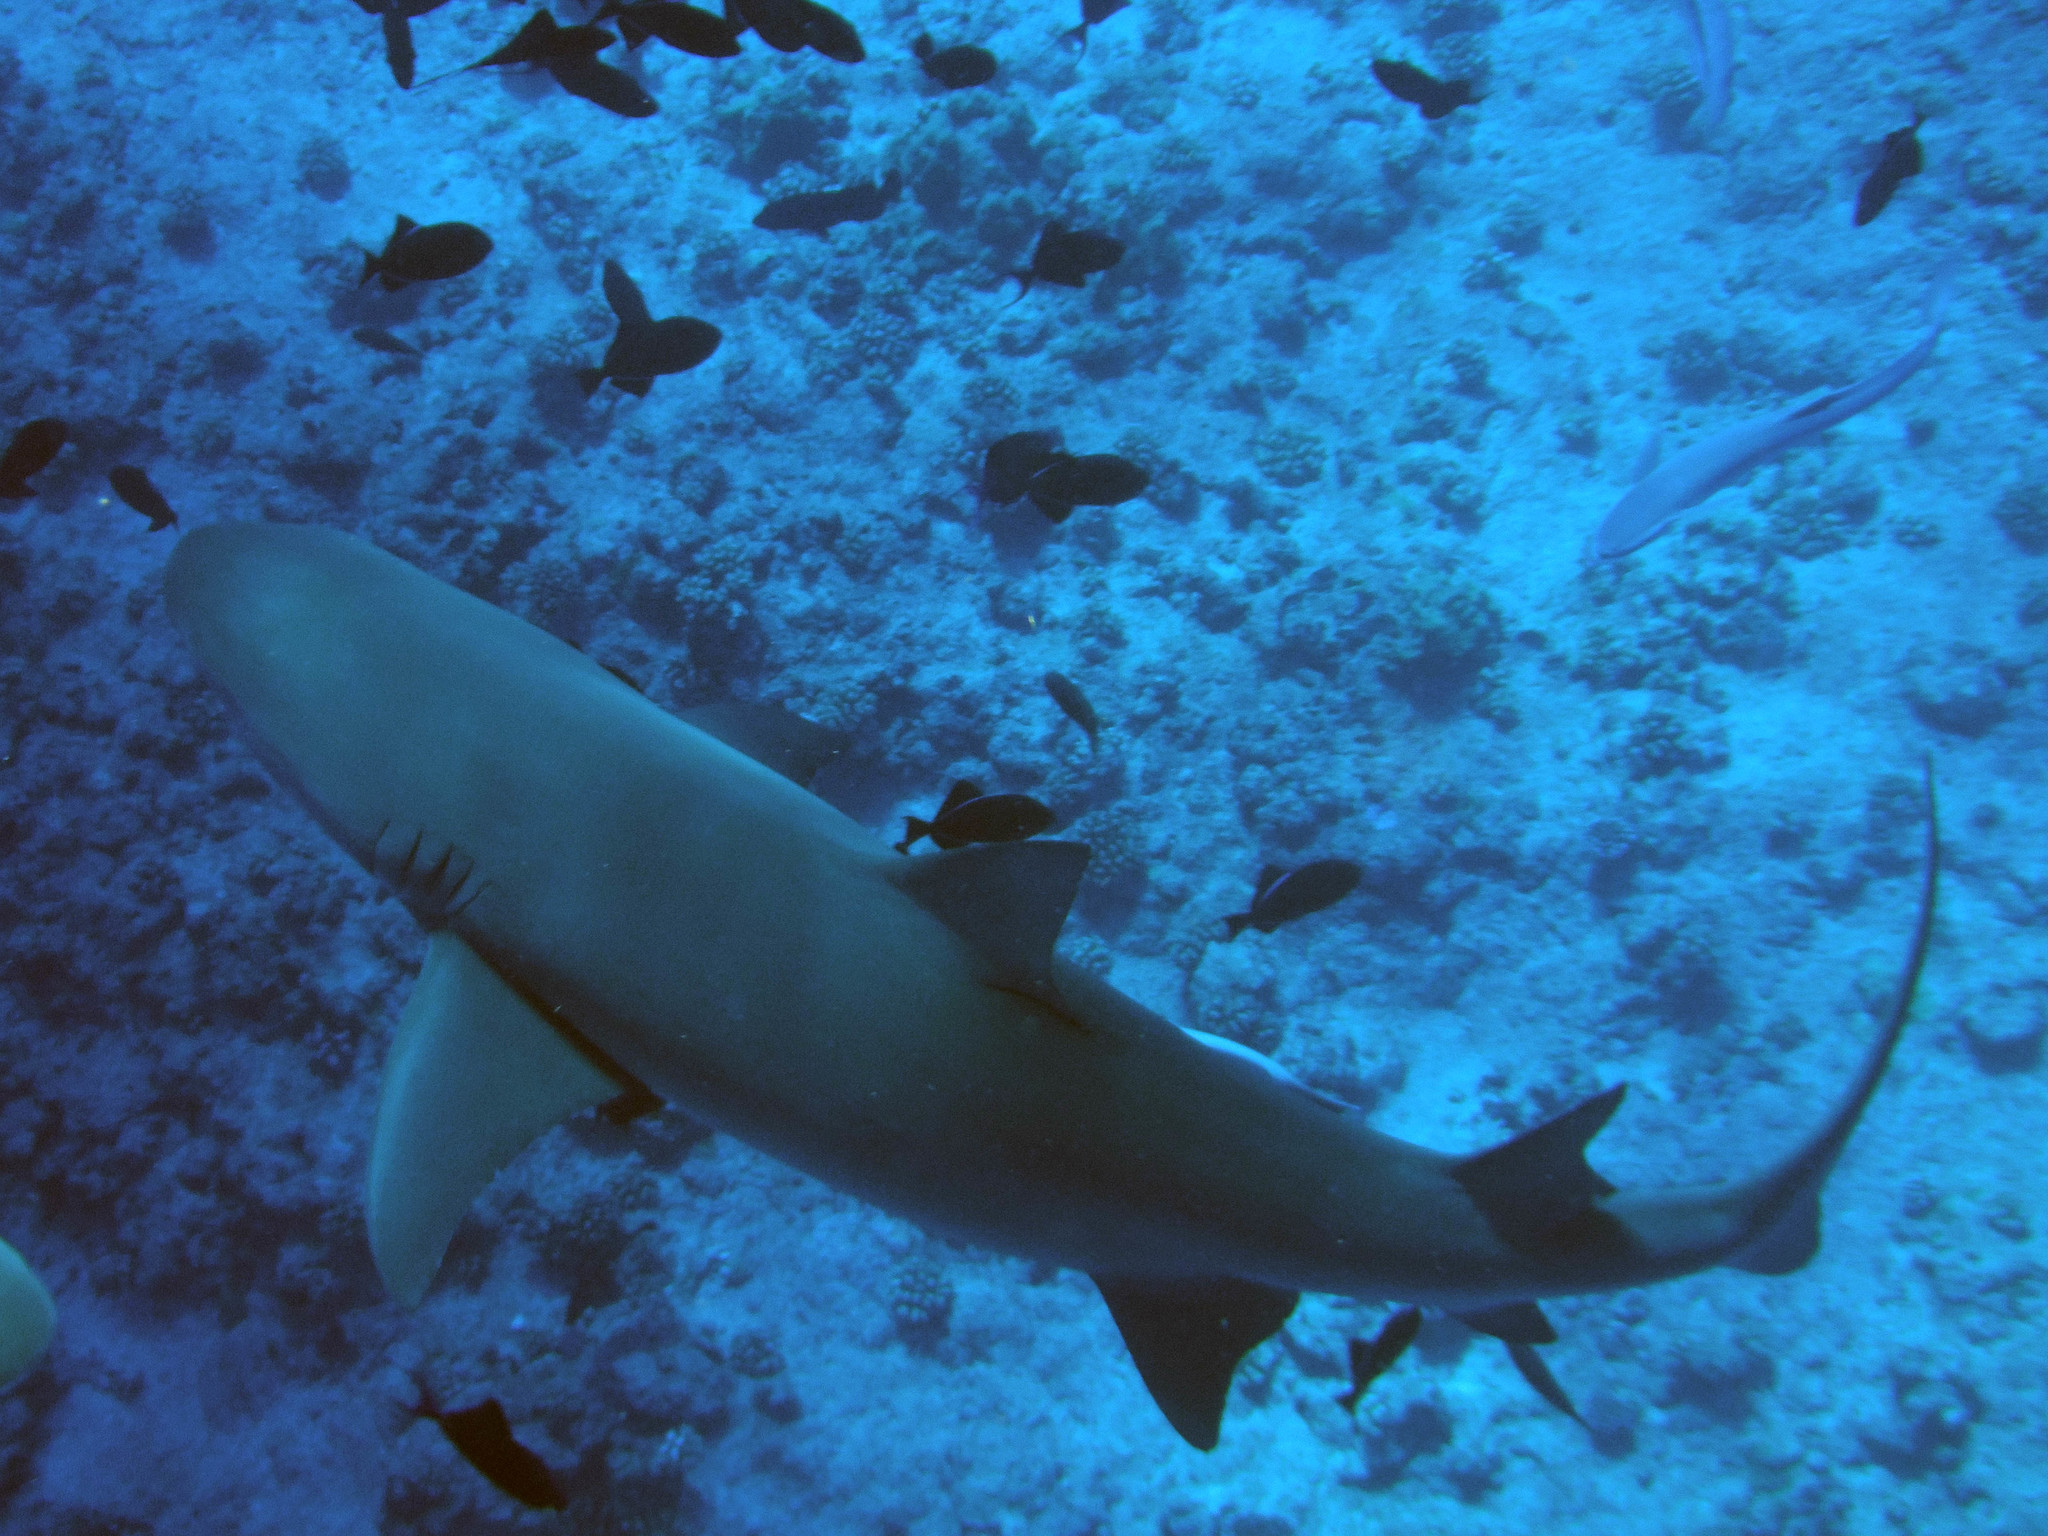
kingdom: Animalia
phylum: Chordata
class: Elasmobranchii
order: Carcharhiniformes
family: Carcharhinidae
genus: Negaprion
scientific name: Negaprion acutidens
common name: Lemon shark
